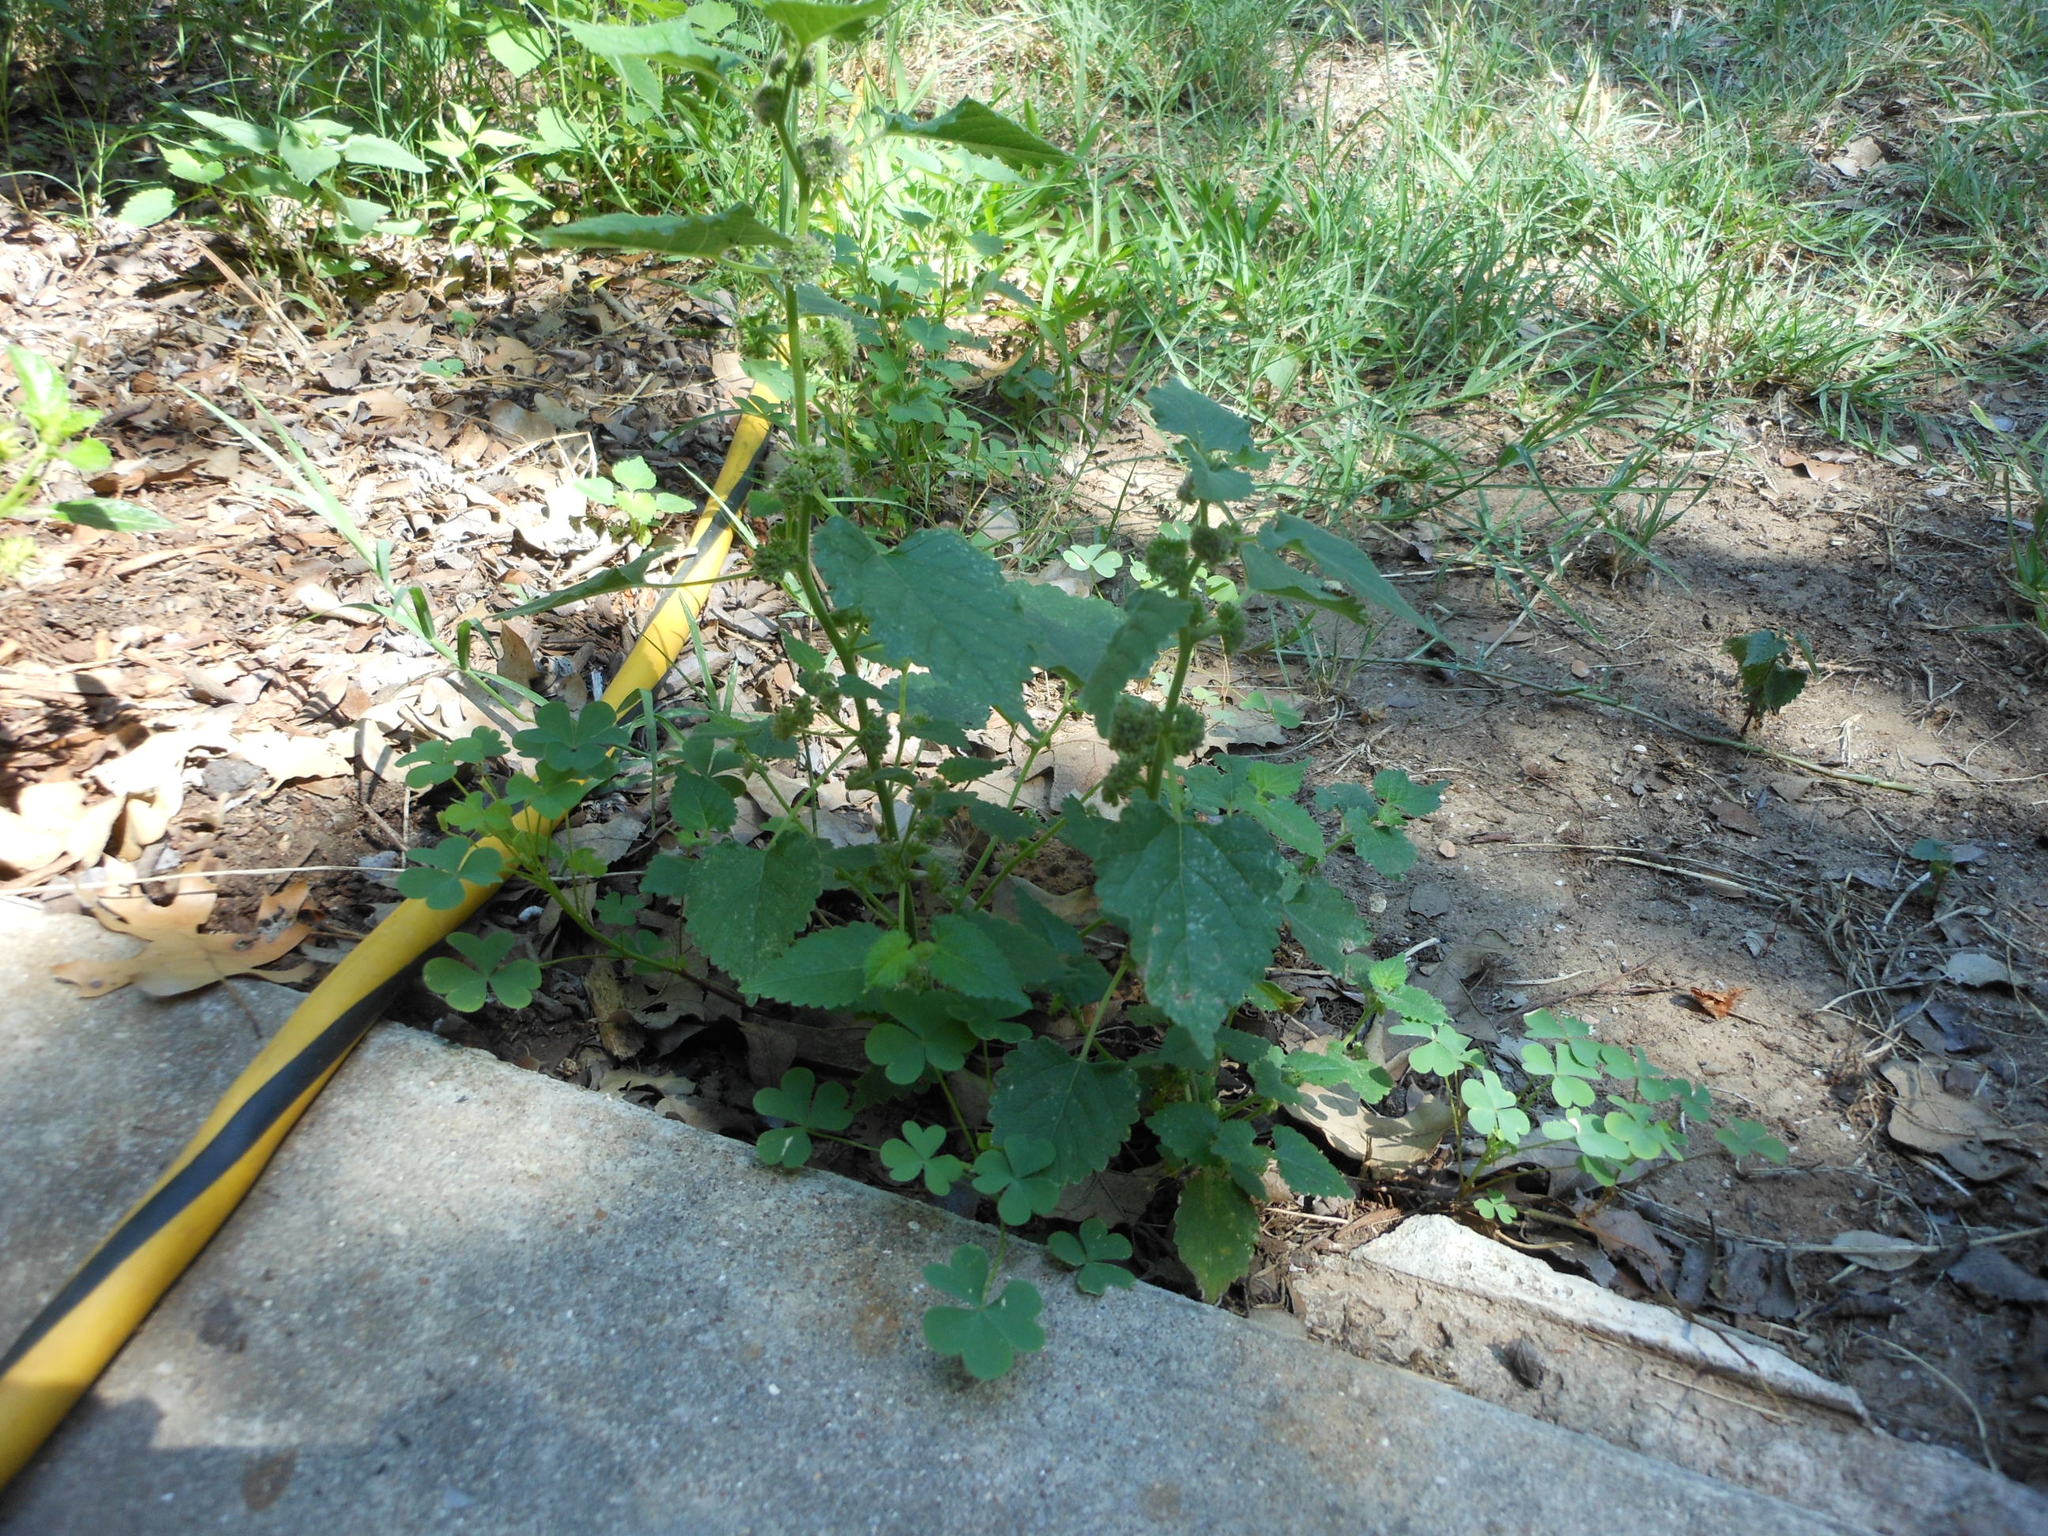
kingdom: Plantae
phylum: Tracheophyta
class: Magnoliopsida
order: Rosales
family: Moraceae
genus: Fatoua
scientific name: Fatoua villosa
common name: Hairy crabweed
